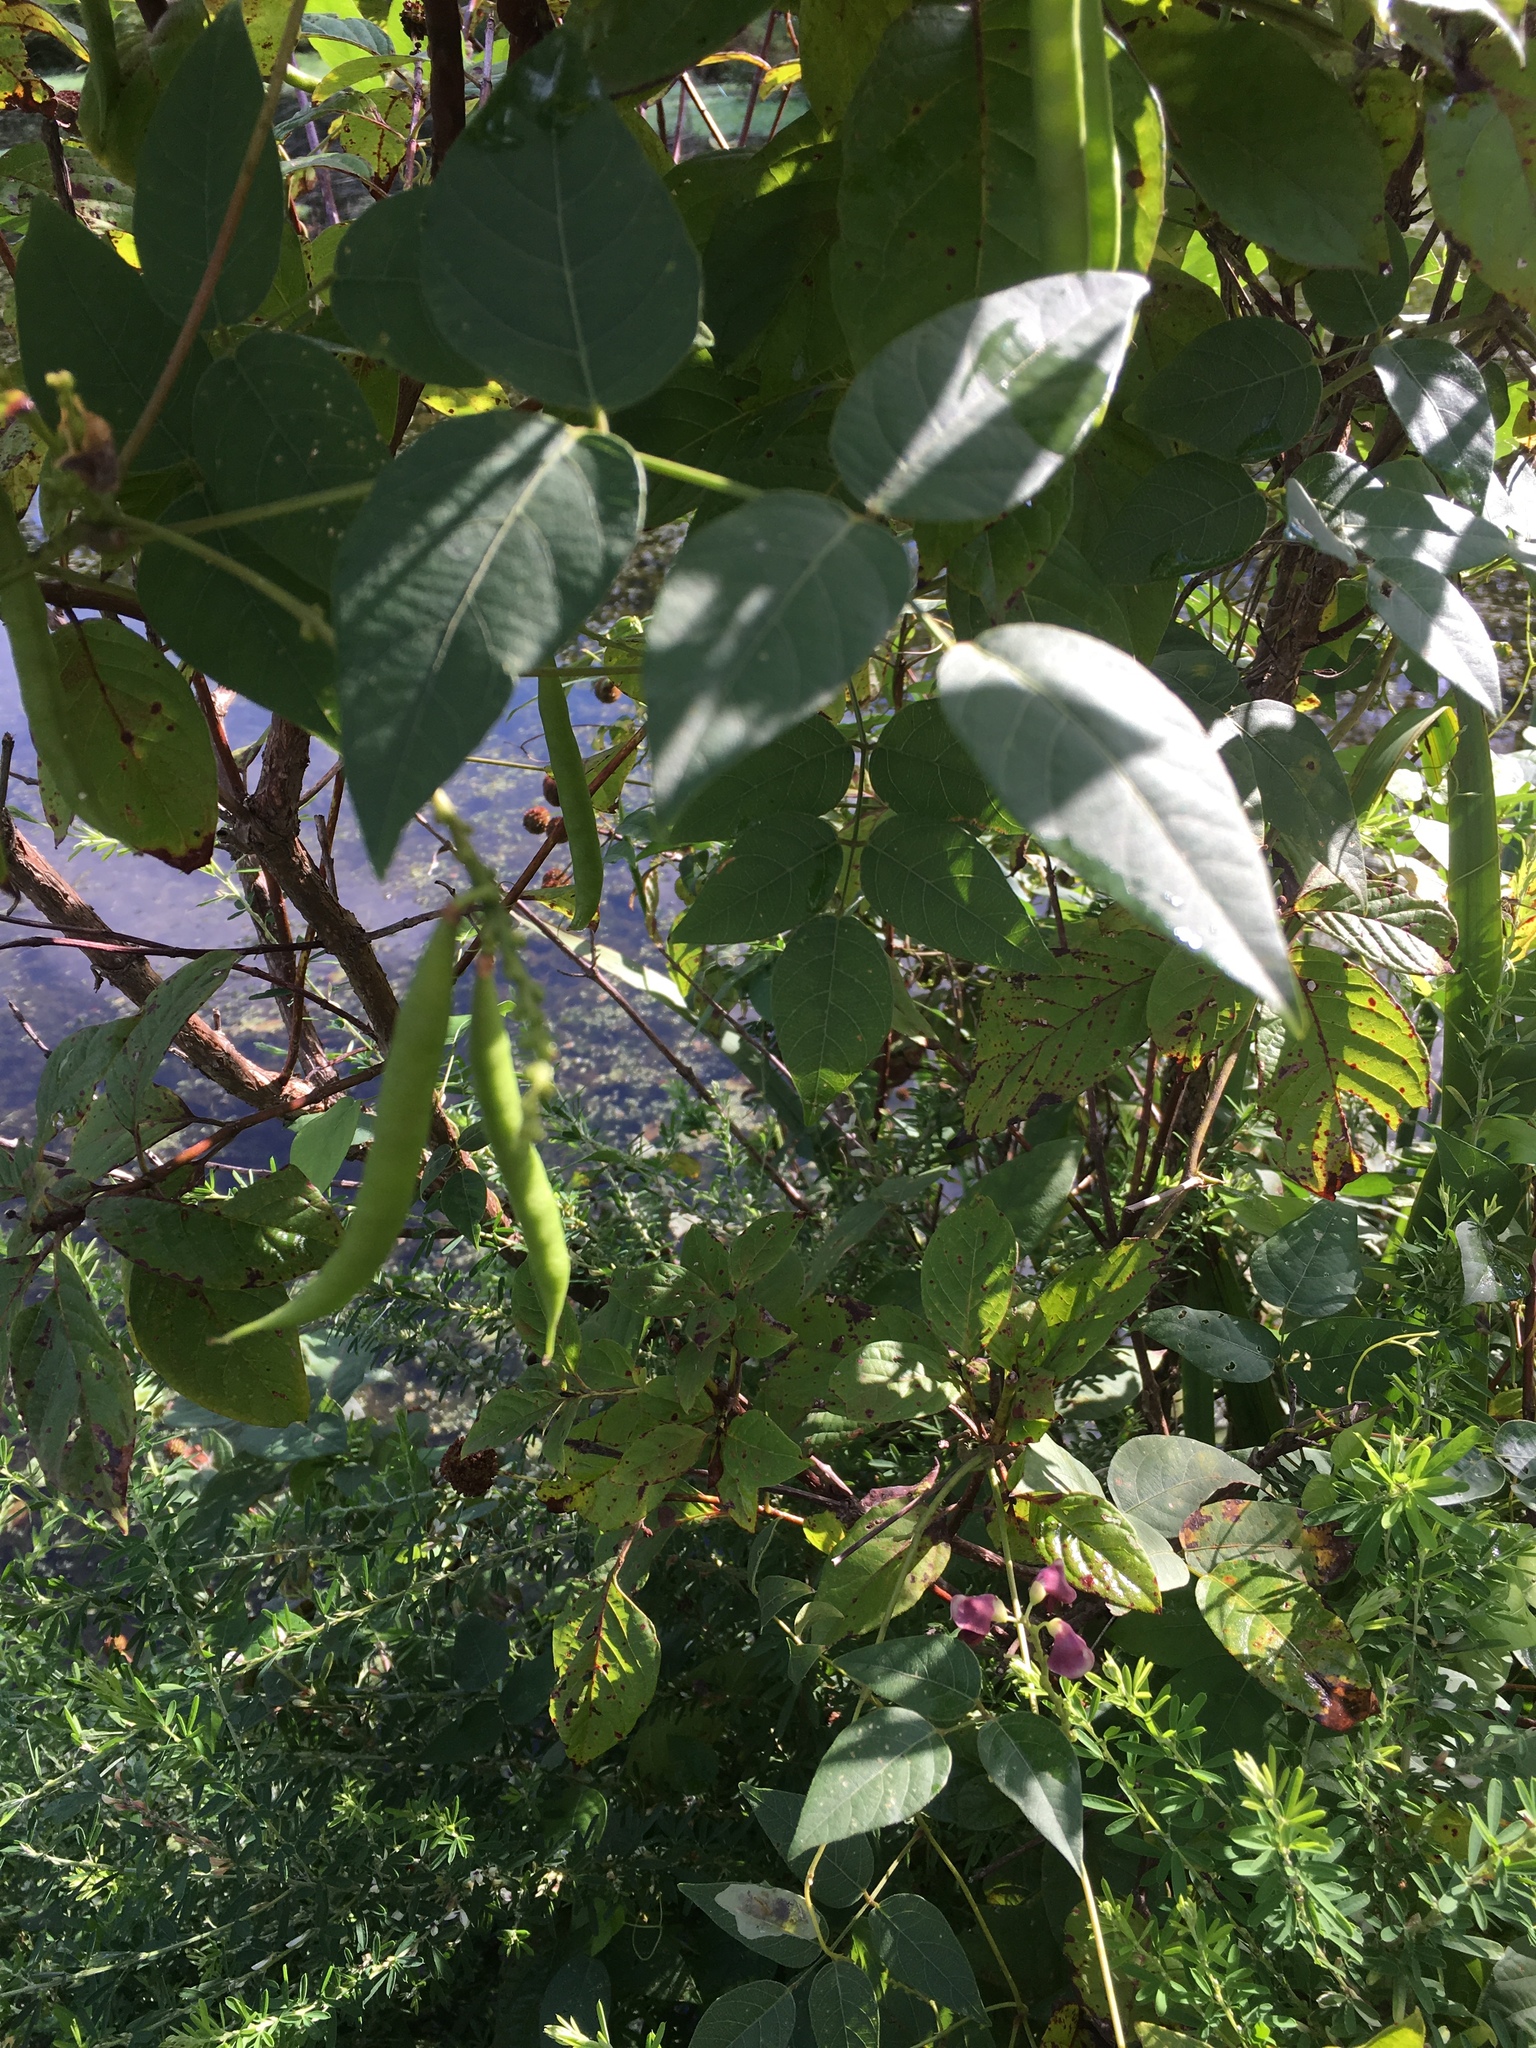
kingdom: Plantae
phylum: Tracheophyta
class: Magnoliopsida
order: Fabales
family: Fabaceae
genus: Apios
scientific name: Apios americana
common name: American potato-bean
